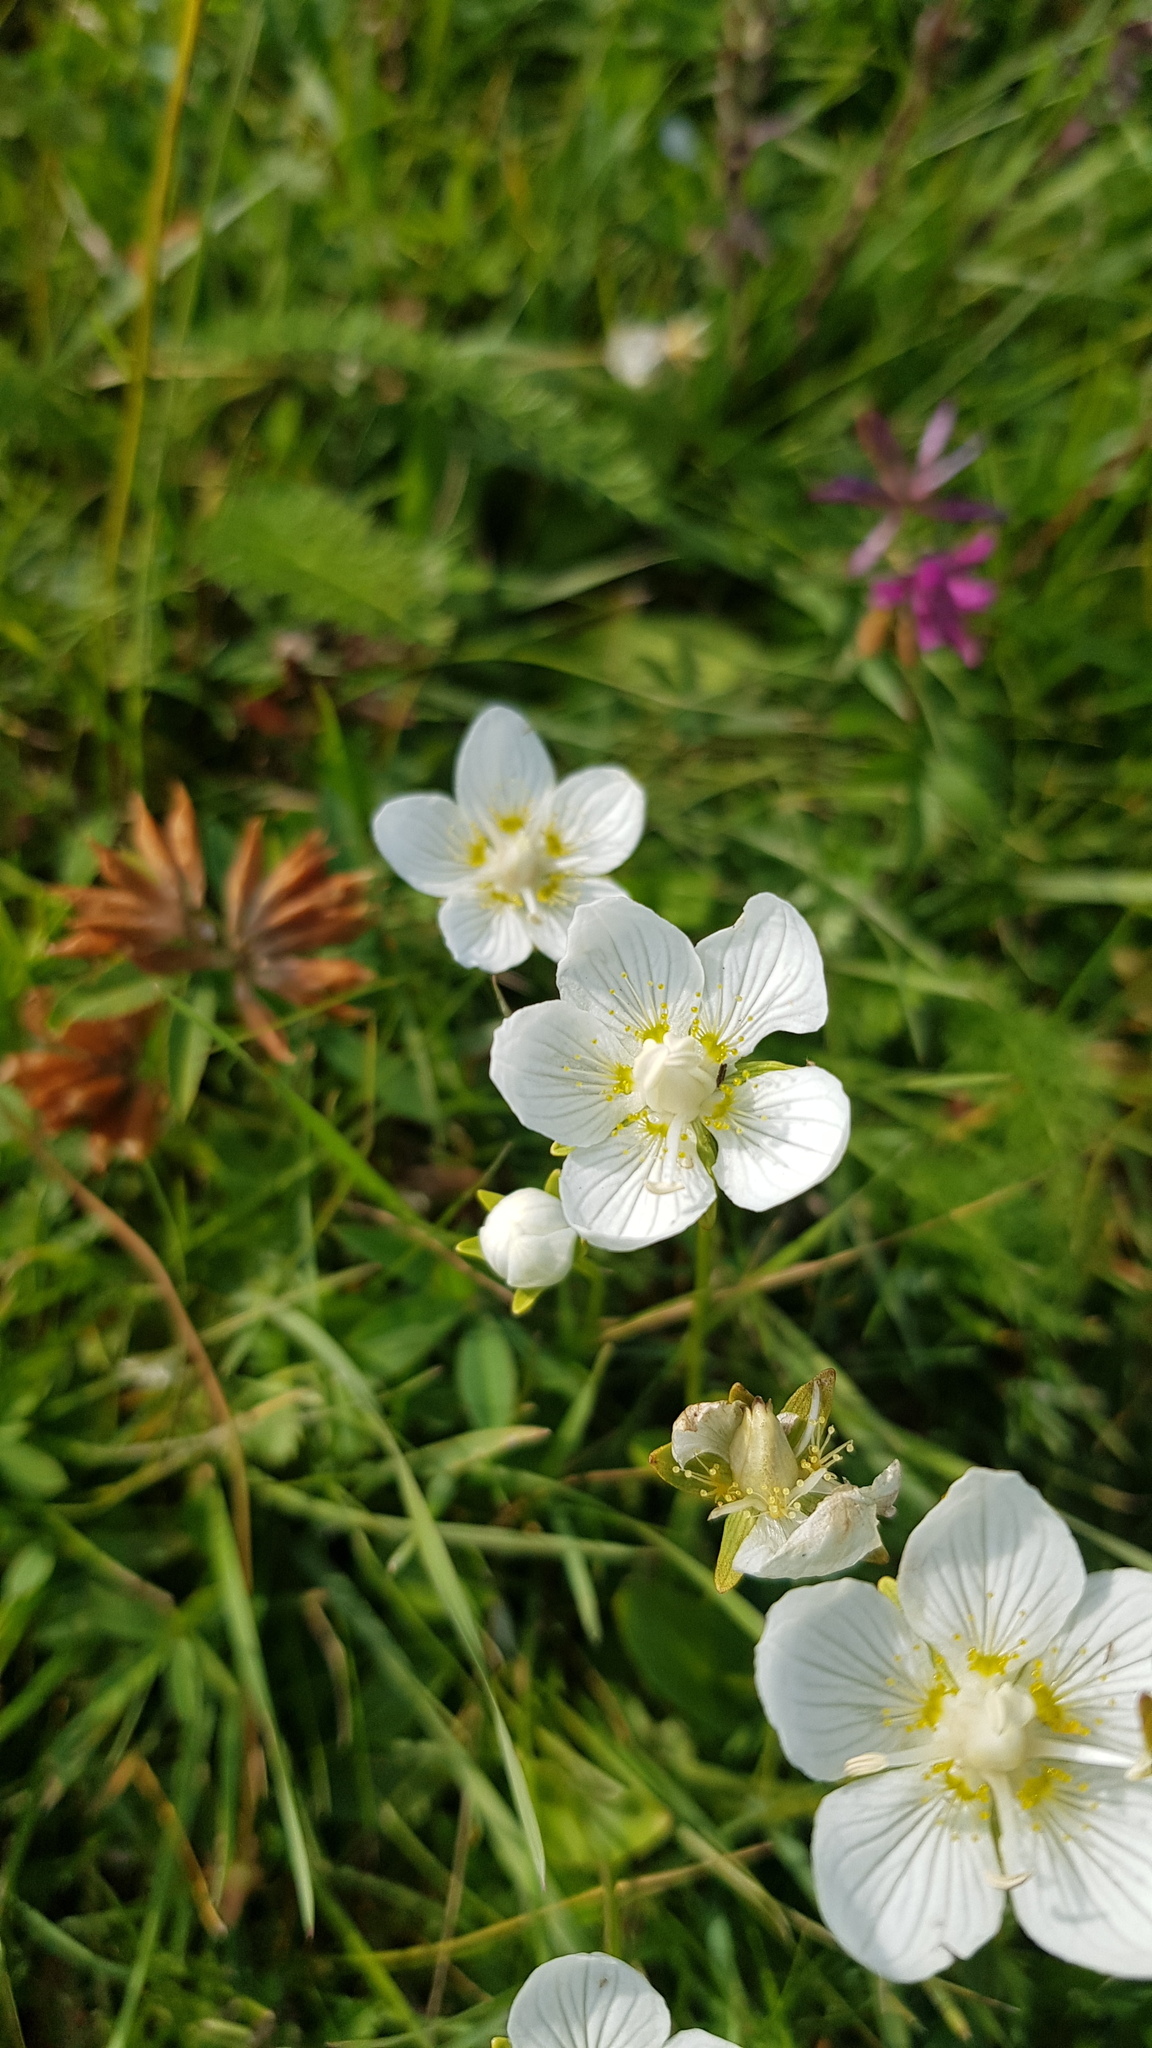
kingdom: Plantae
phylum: Tracheophyta
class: Magnoliopsida
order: Celastrales
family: Parnassiaceae
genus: Parnassia
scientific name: Parnassia palustris
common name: Grass-of-parnassus
